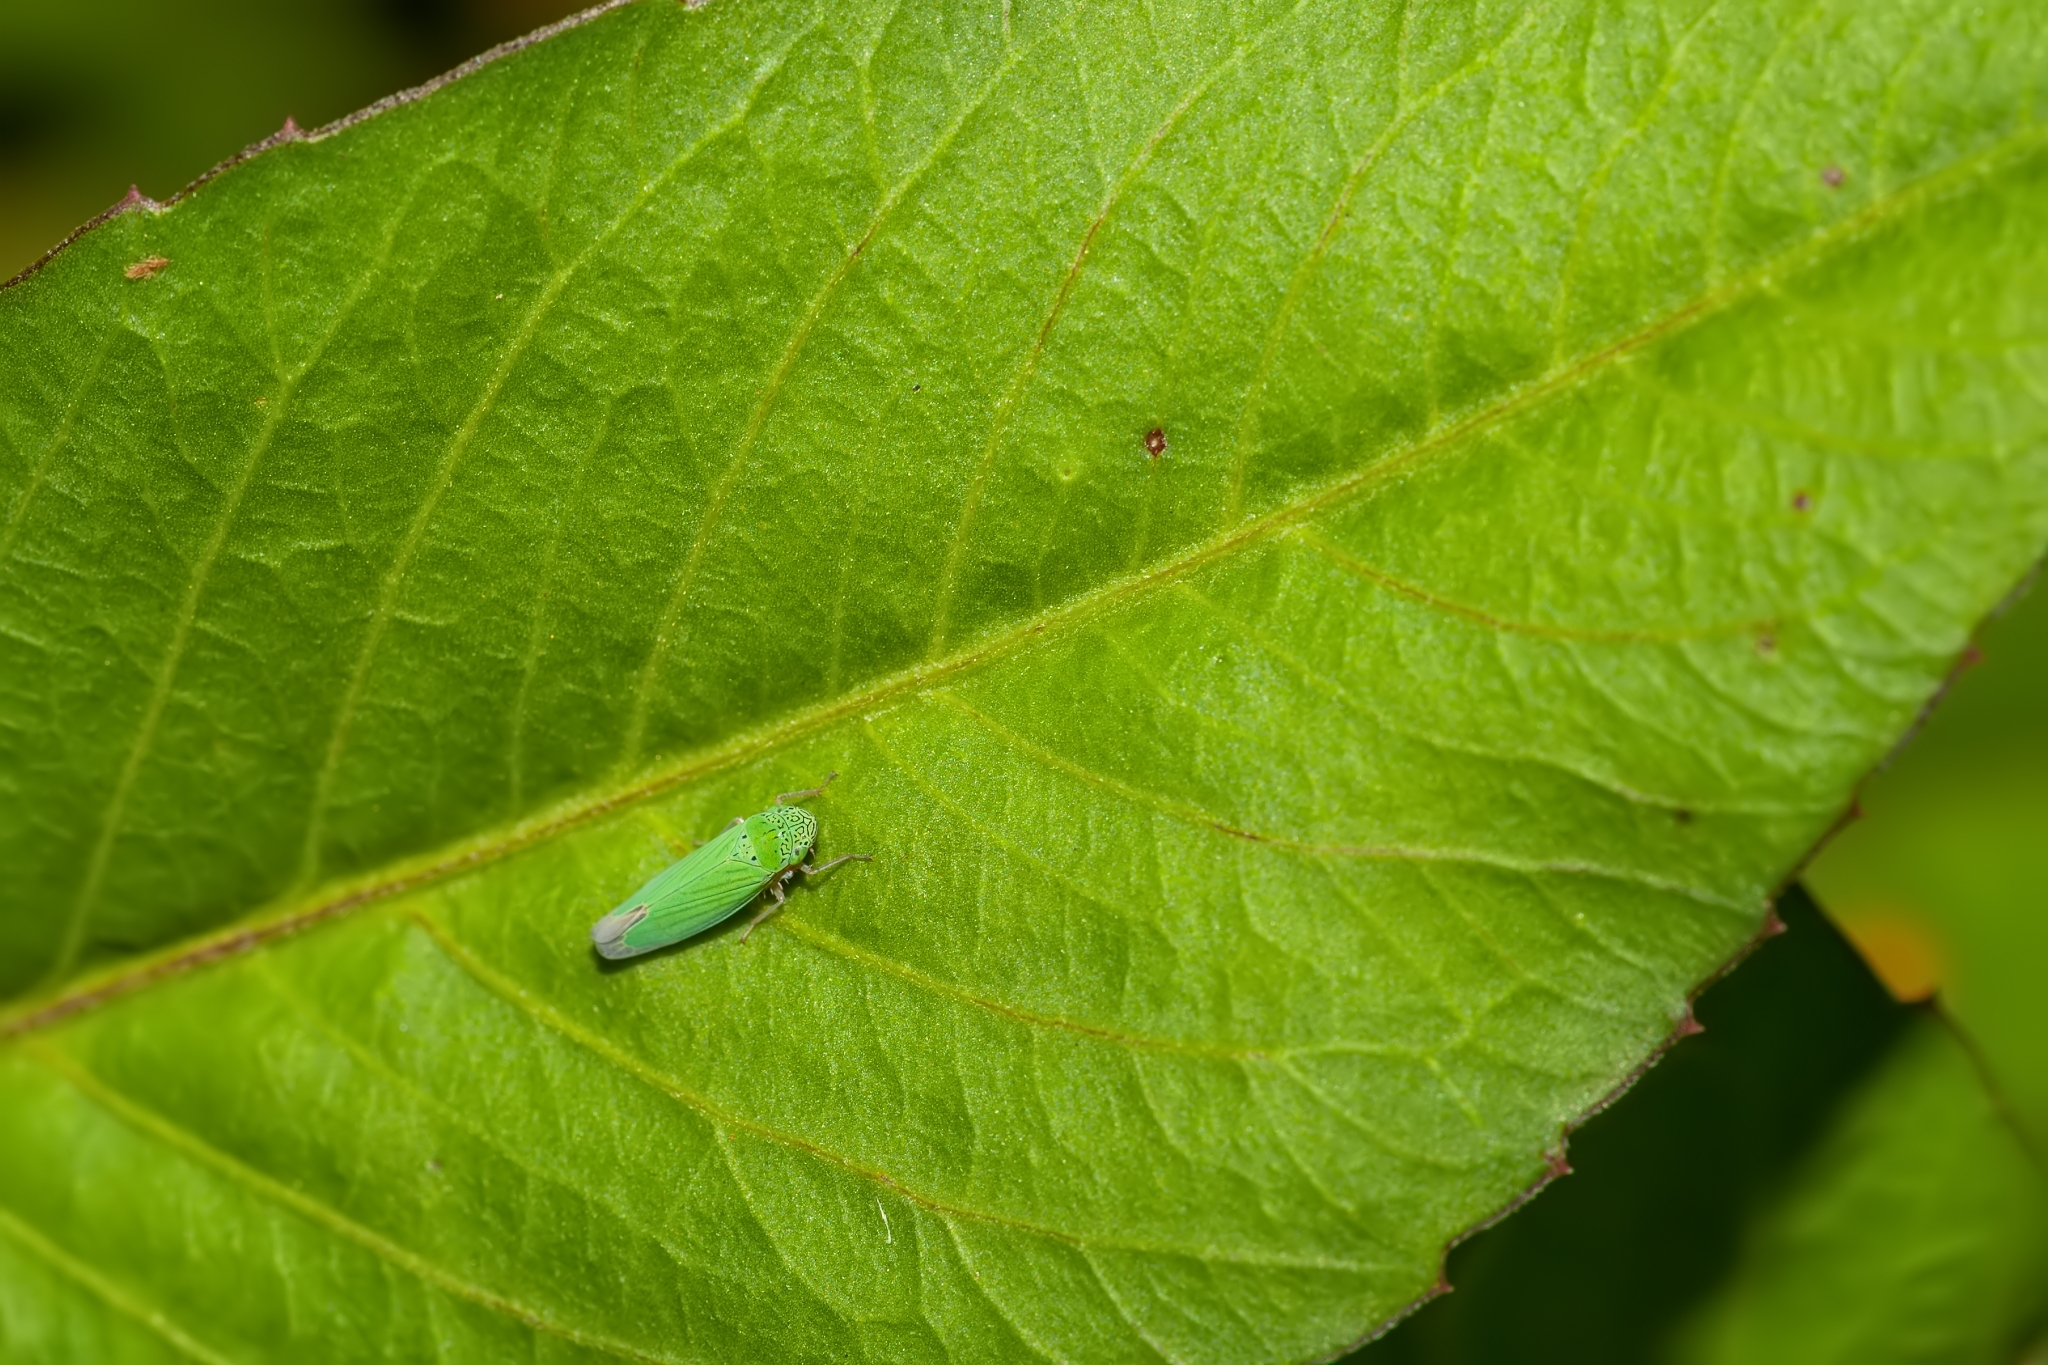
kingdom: Animalia
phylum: Arthropoda
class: Insecta
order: Hemiptera
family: Cicadellidae
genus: Hortensia
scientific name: Hortensia similis
